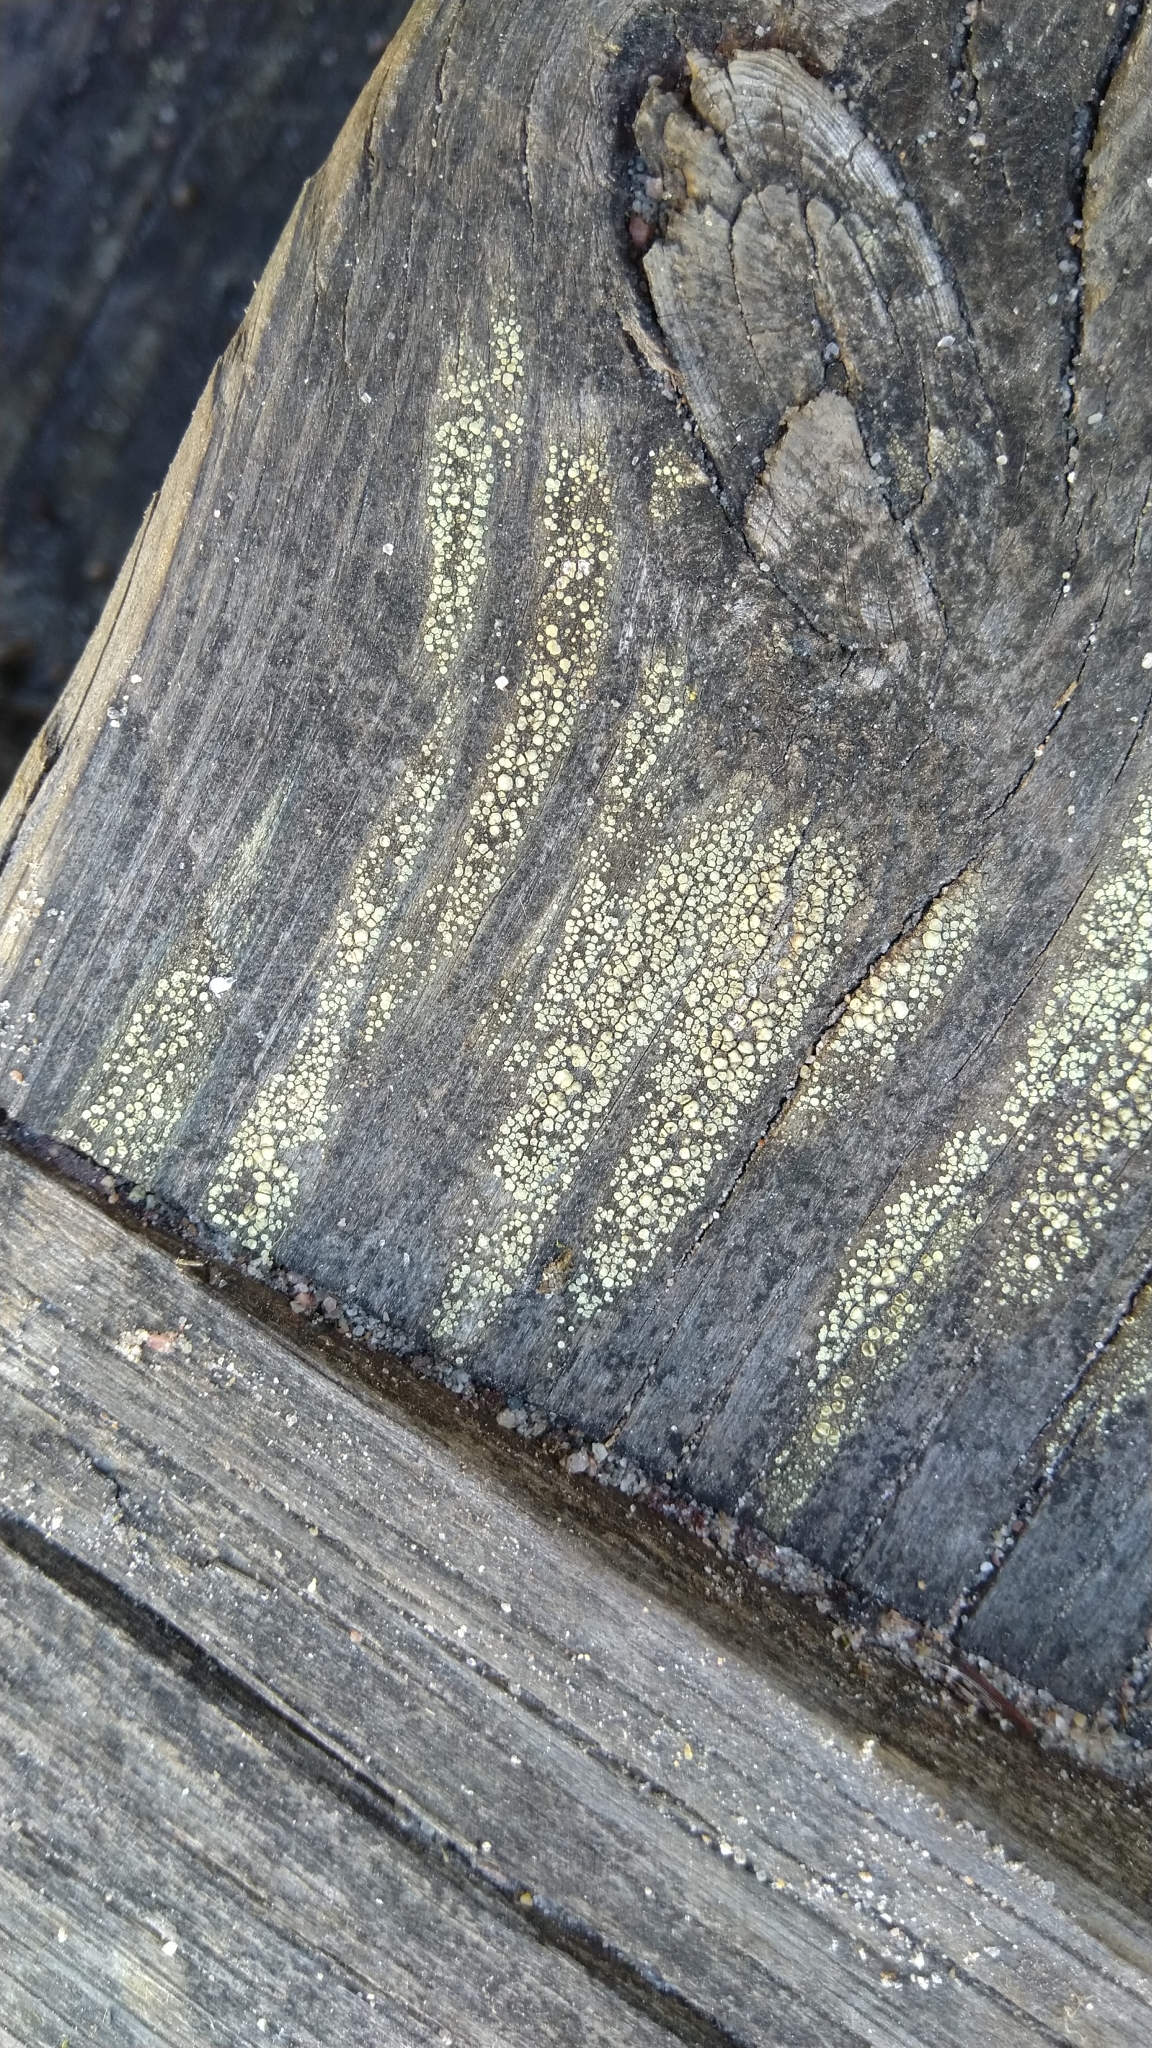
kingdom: Fungi
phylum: Ascomycota
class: Lecanoromycetes
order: Lecanorales
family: Lecanoraceae
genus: Lecanora
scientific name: Lecanora
